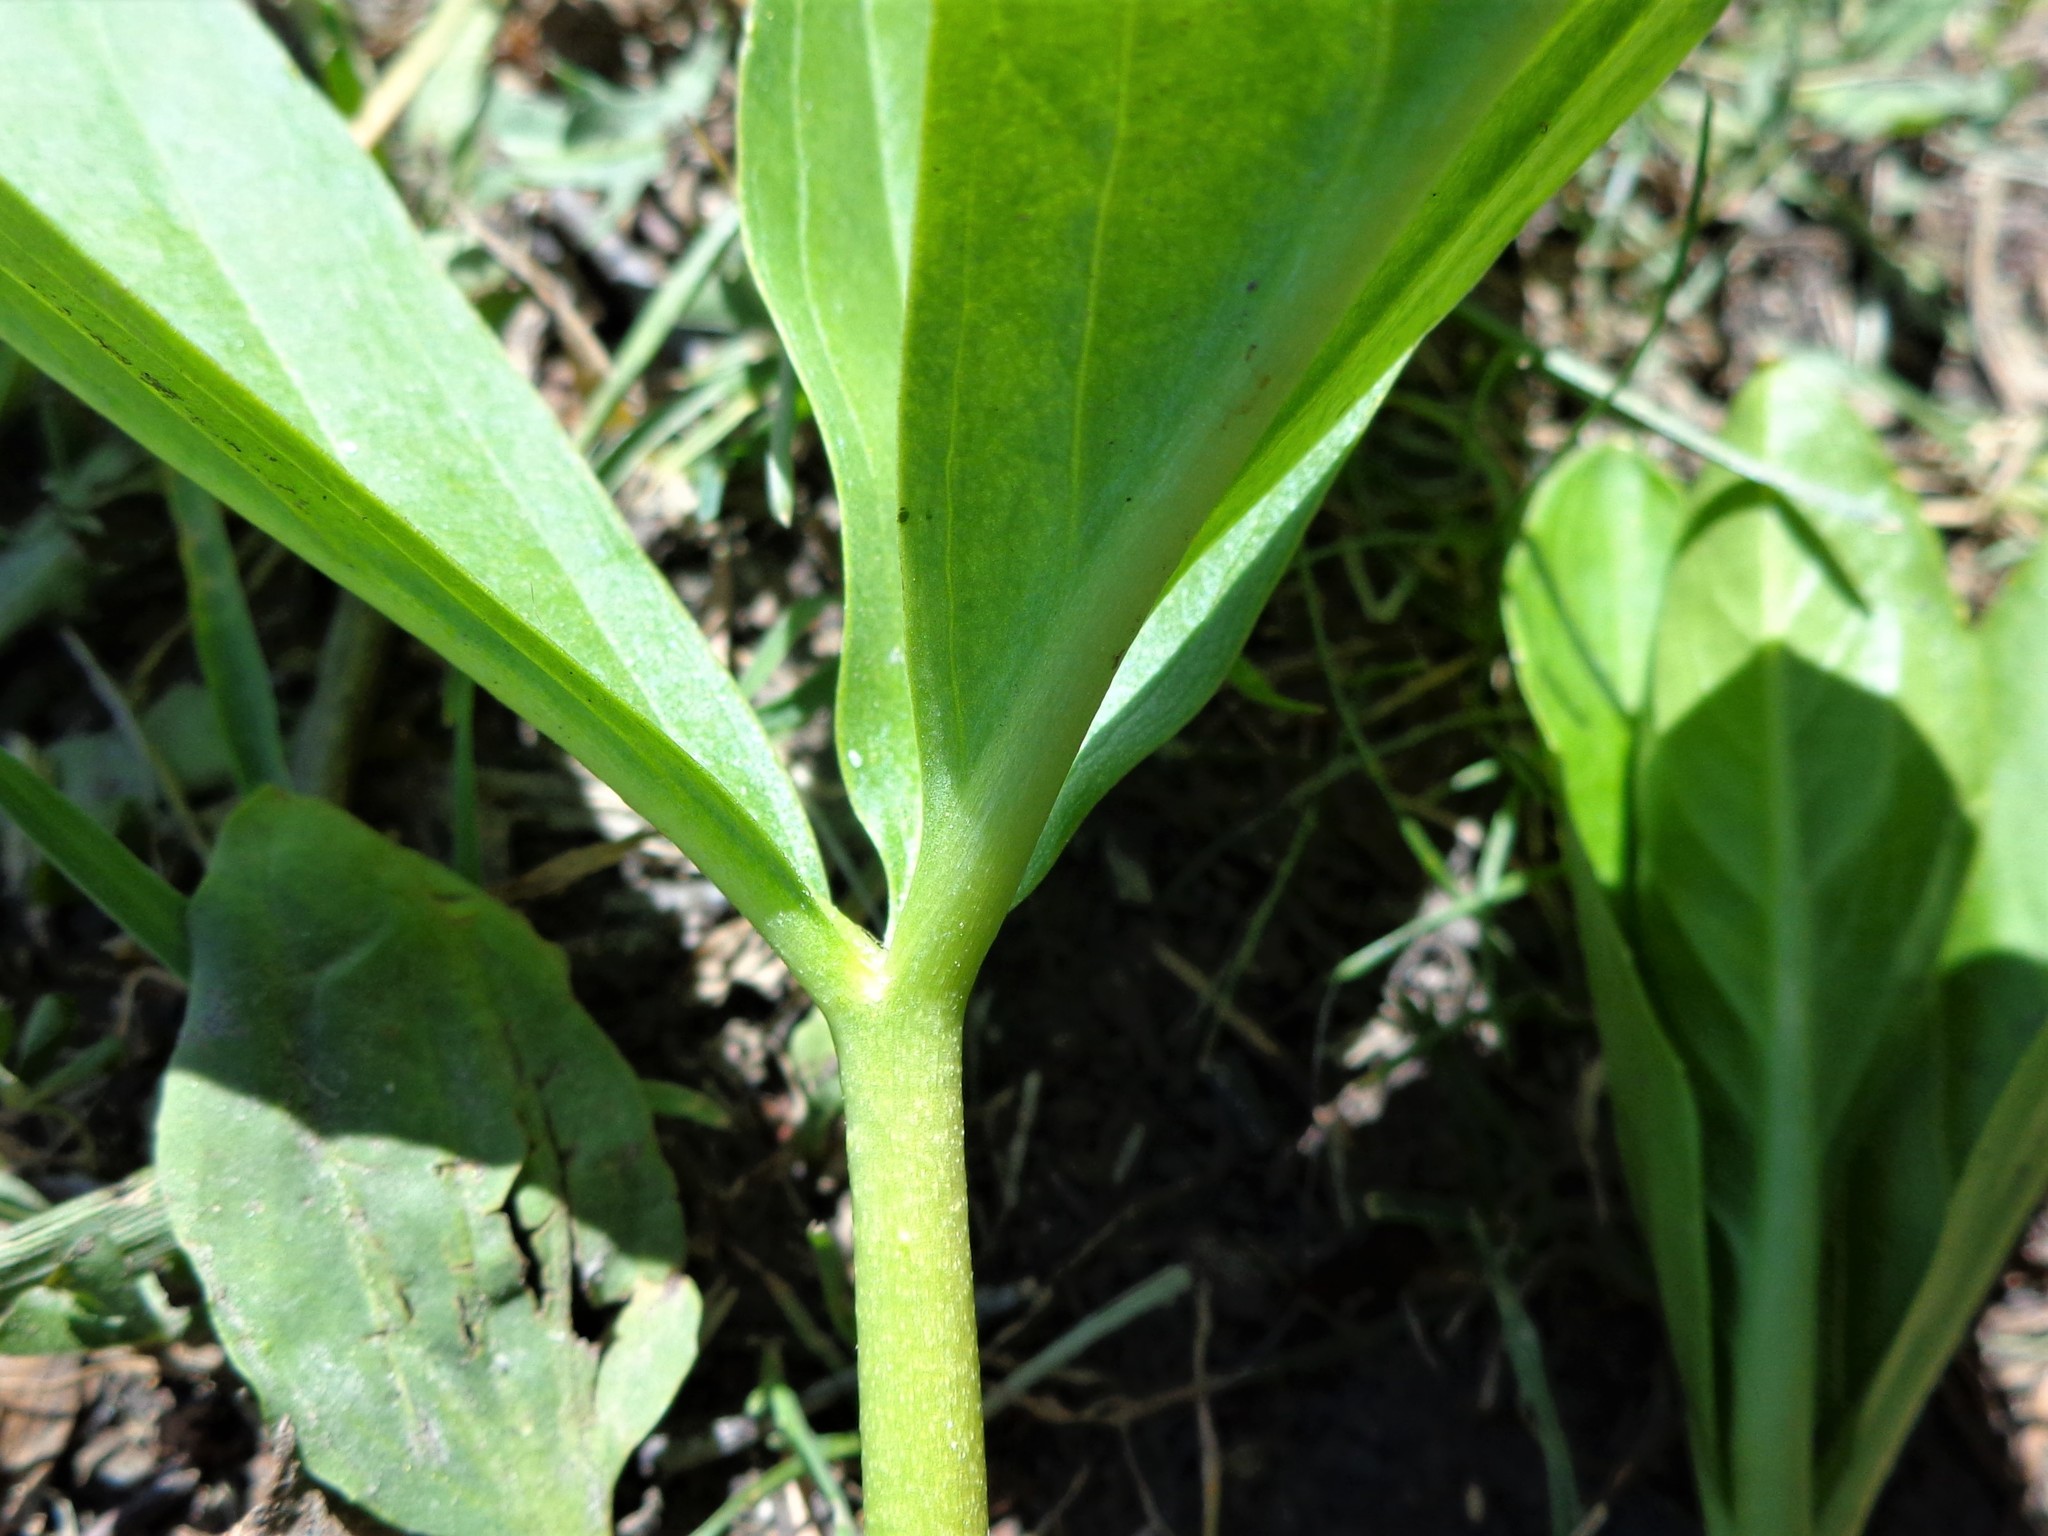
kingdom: Plantae
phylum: Tracheophyta
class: Magnoliopsida
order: Asterales
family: Menyanthaceae
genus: Menyanthes
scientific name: Menyanthes trifoliata
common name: Bogbean
